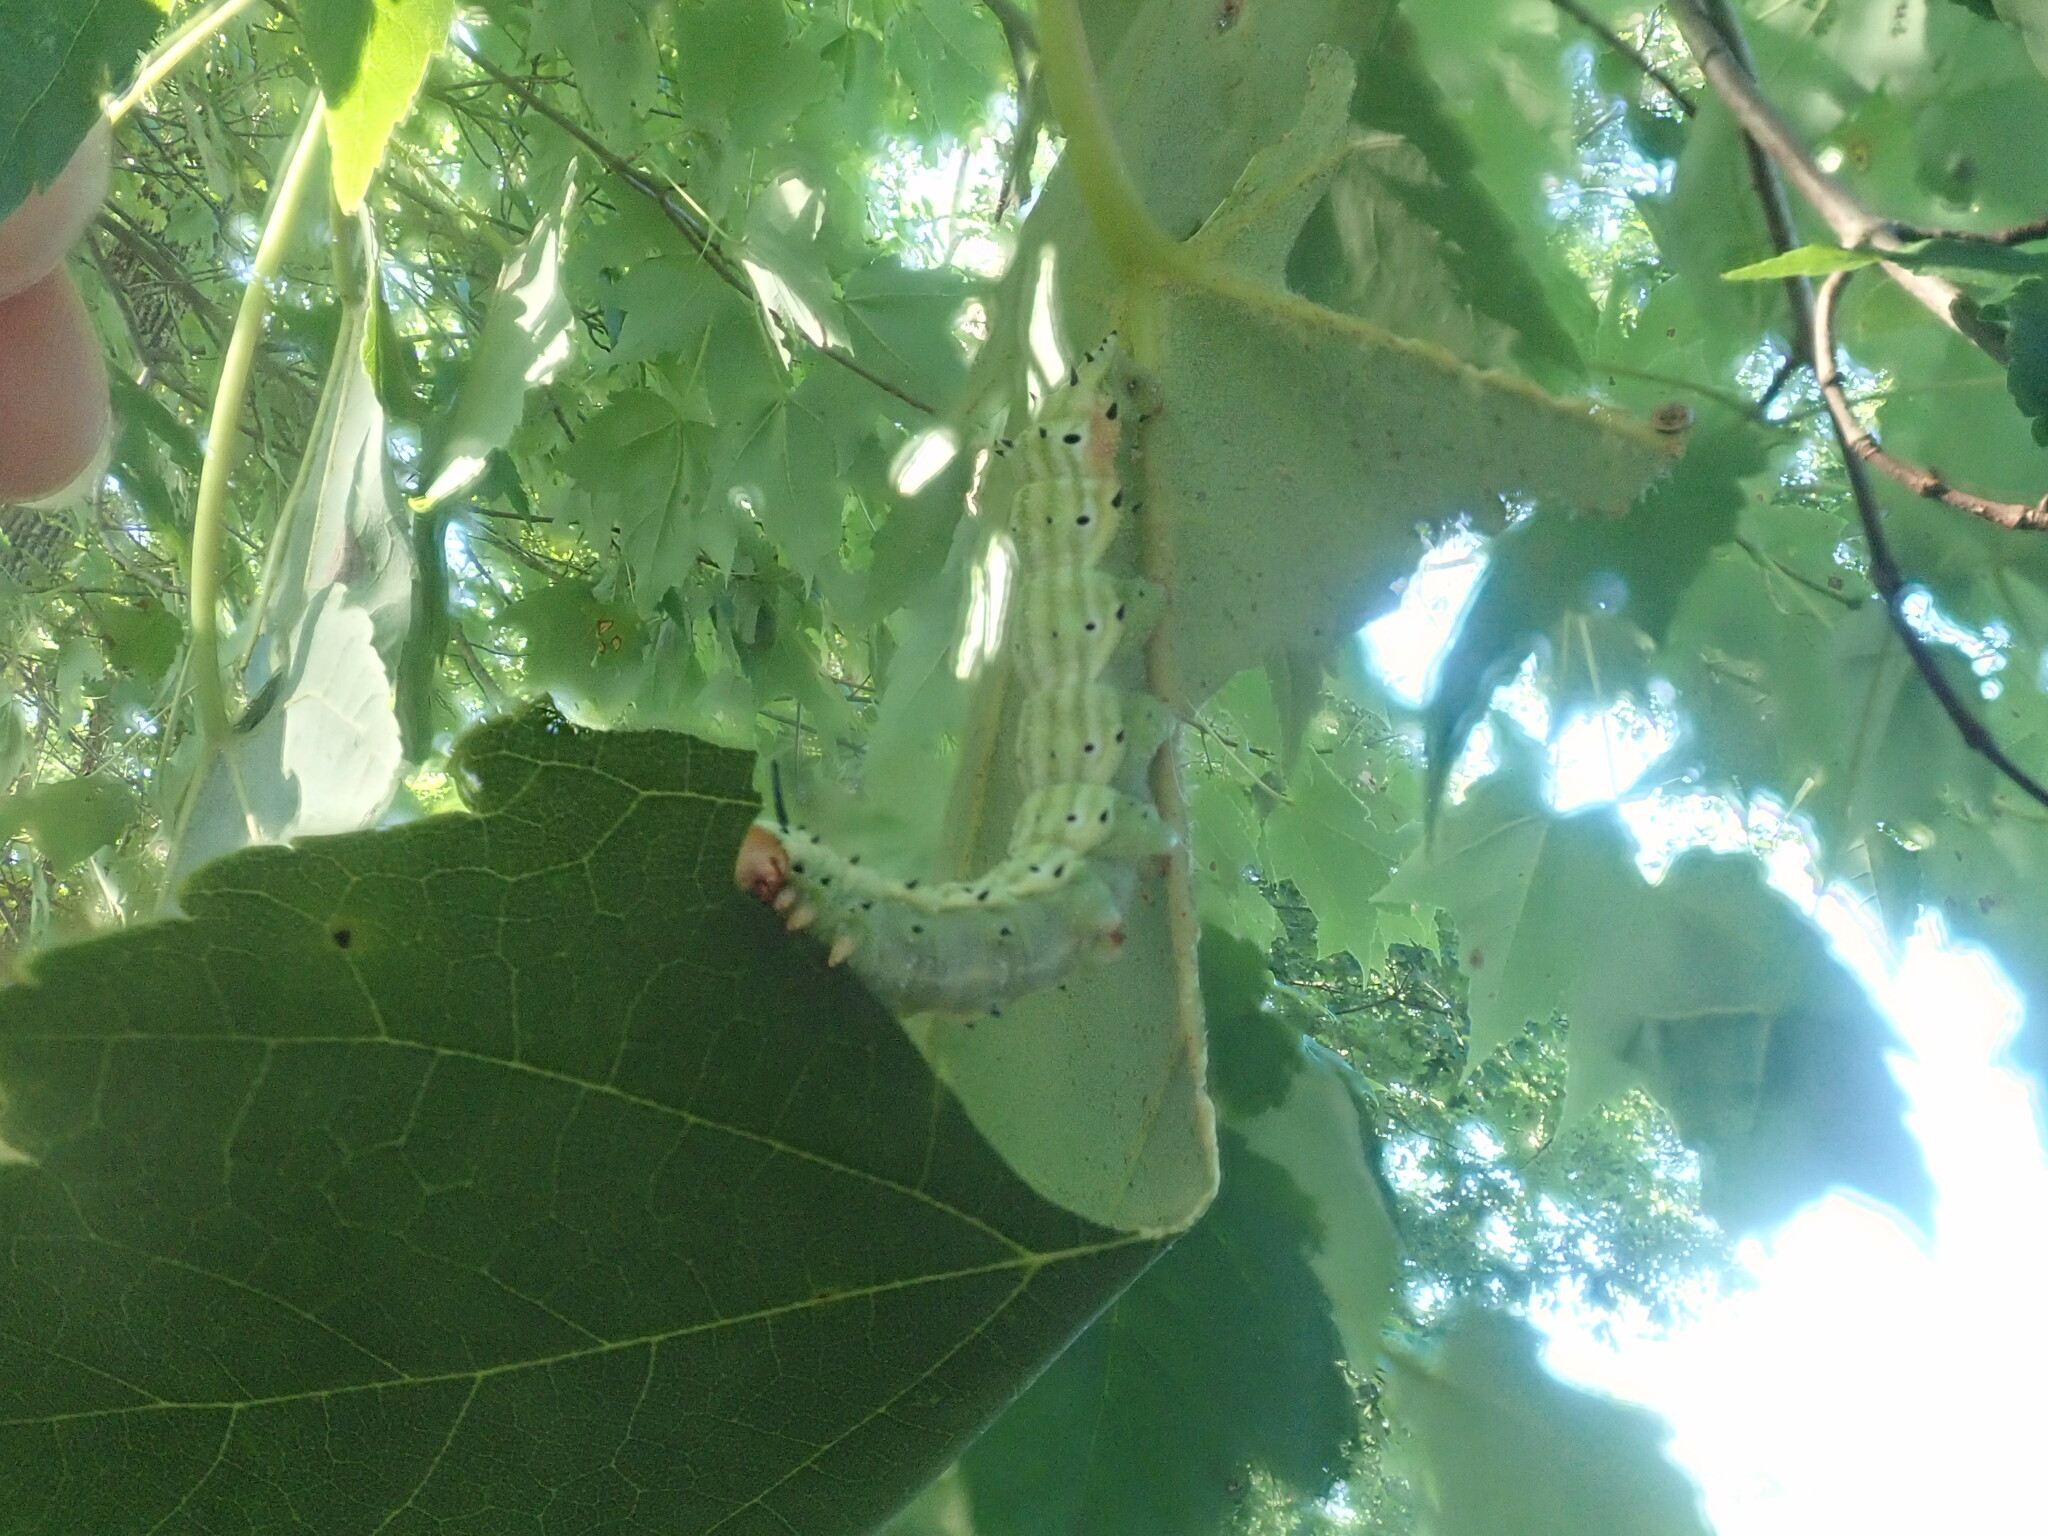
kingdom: Animalia
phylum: Arthropoda
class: Insecta
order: Lepidoptera
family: Saturniidae
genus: Dryocampa
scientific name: Dryocampa rubicunda
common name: Rosy maple moth
